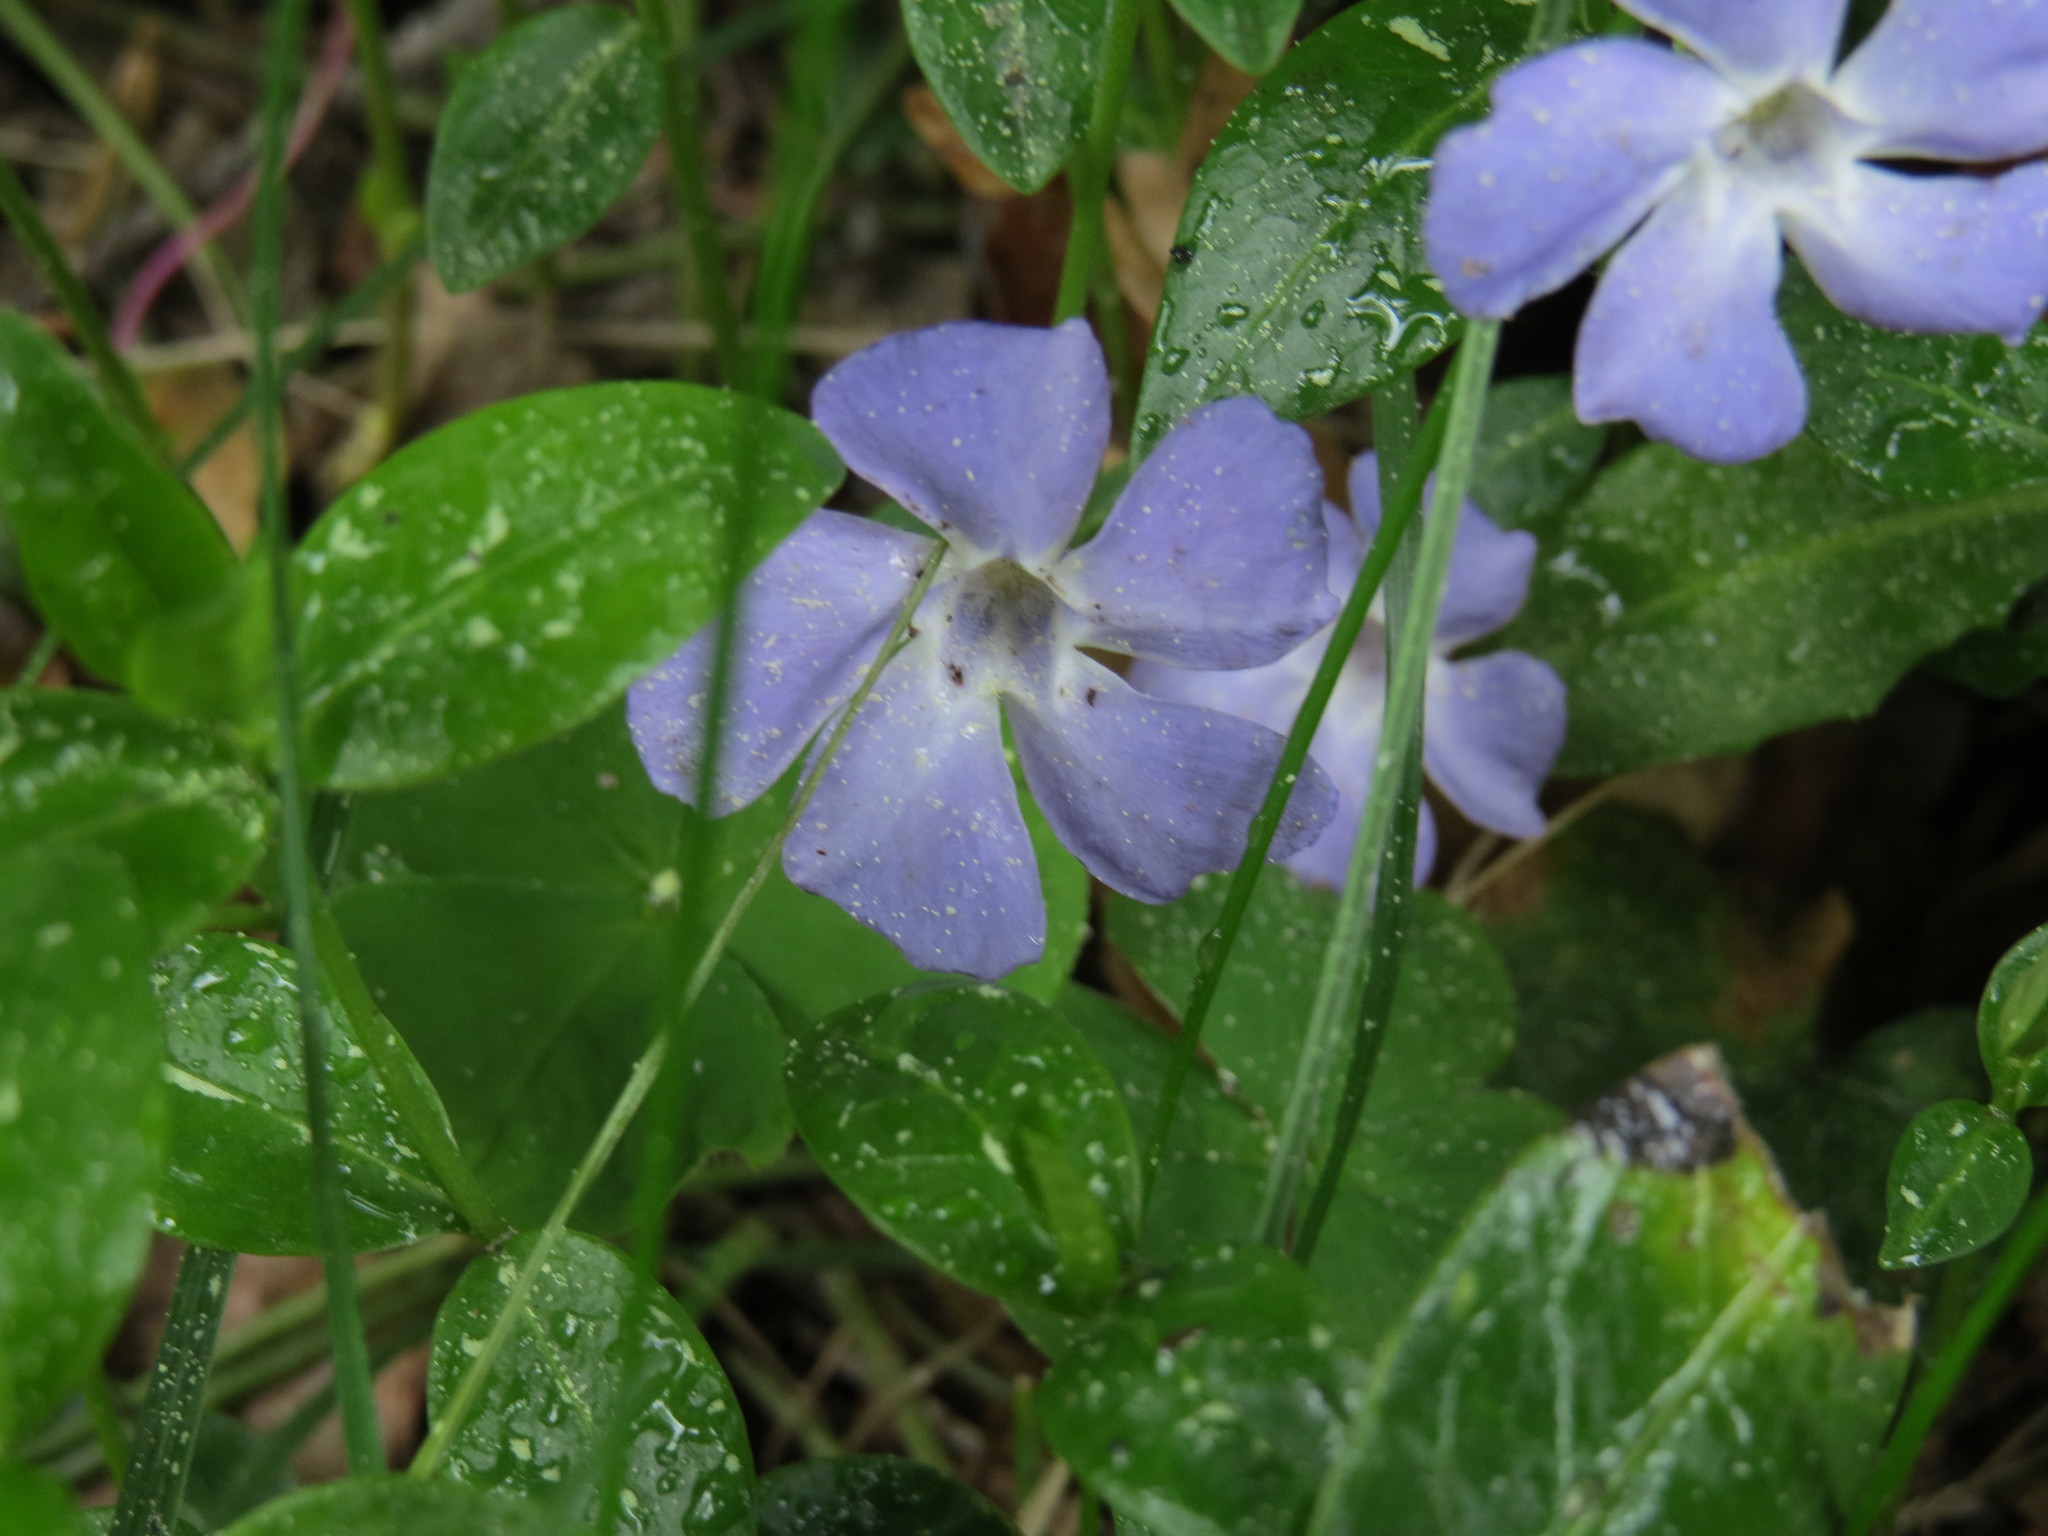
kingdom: Plantae
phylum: Tracheophyta
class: Magnoliopsida
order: Gentianales
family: Apocynaceae
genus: Vinca
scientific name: Vinca minor
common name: Lesser periwinkle
